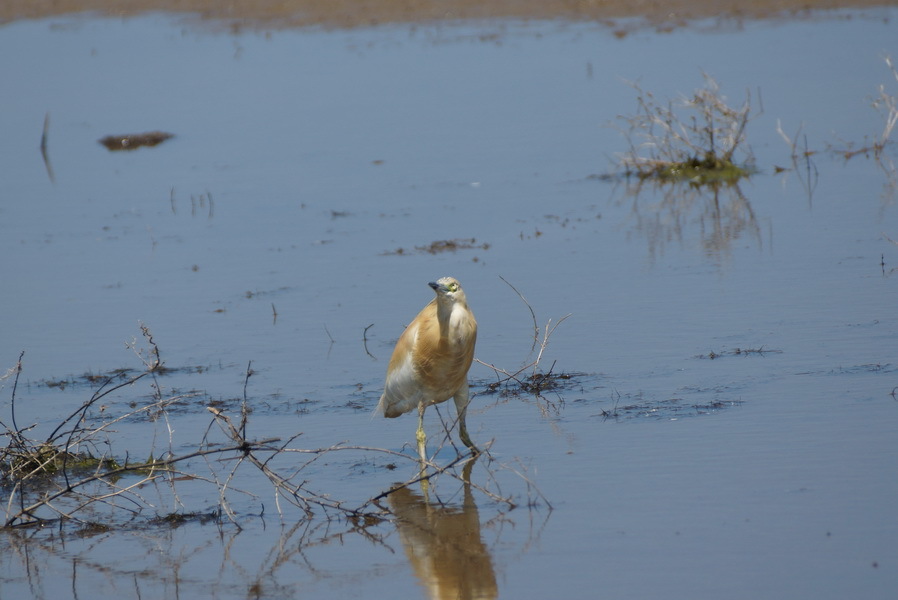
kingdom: Animalia
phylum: Chordata
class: Aves
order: Pelecaniformes
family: Ardeidae
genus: Ardeola
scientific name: Ardeola ralloides
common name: Squacco heron
